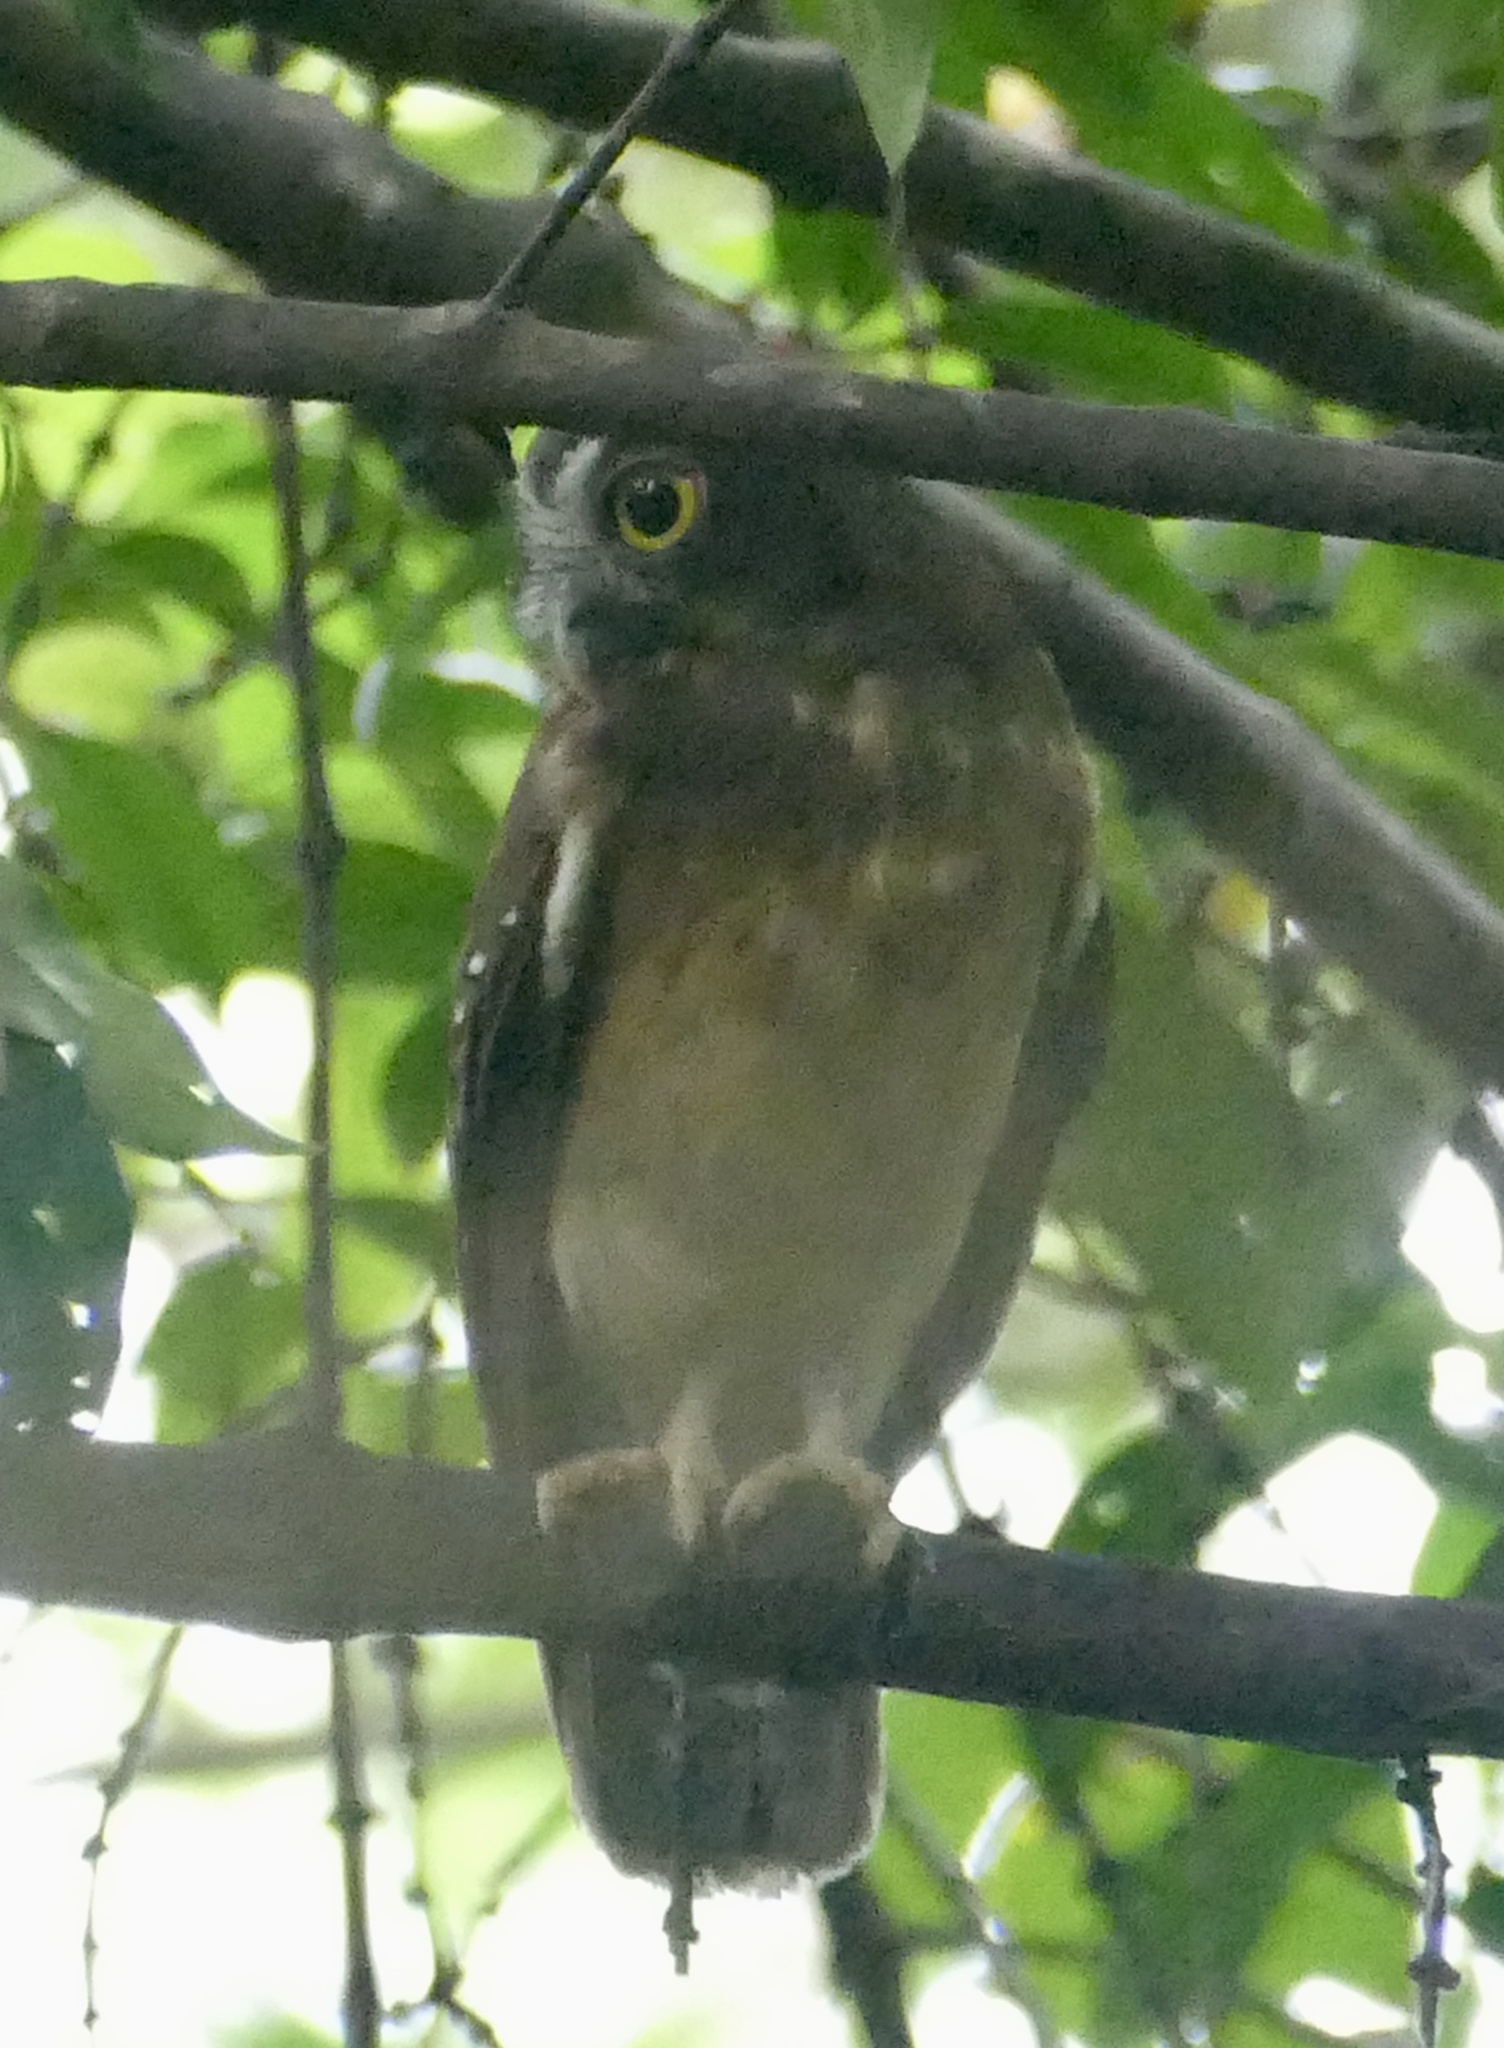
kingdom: Animalia
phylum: Chordata
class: Aves
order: Strigiformes
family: Strigidae
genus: Ninox
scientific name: Ninox ochracea
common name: Ochre-bellied boobook
